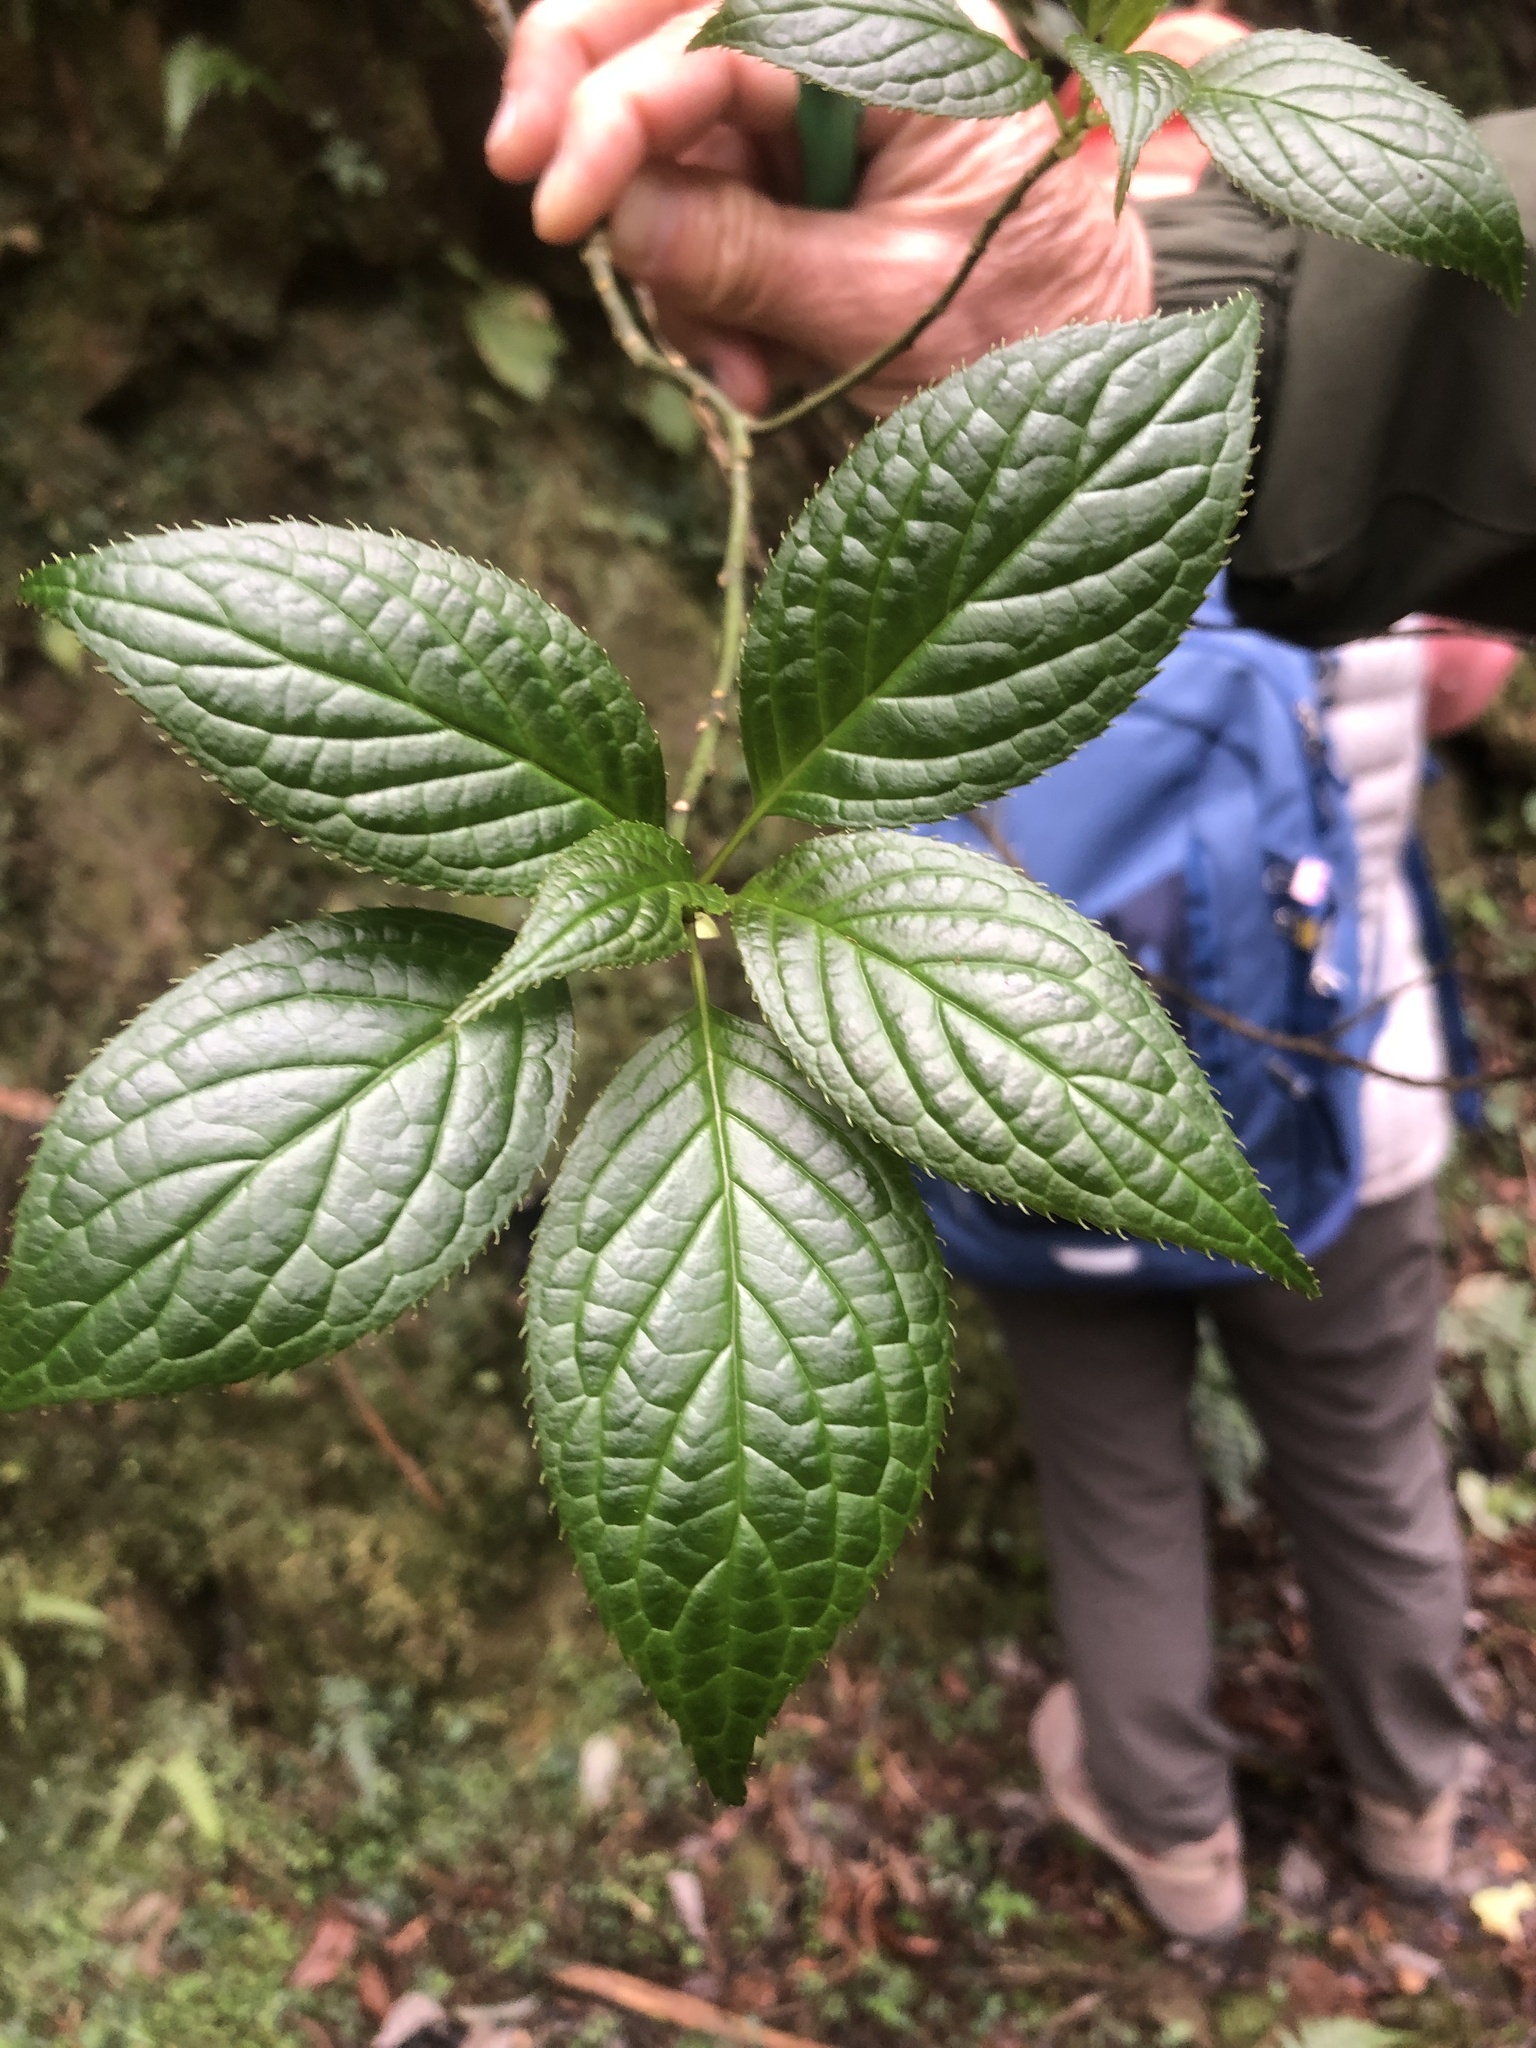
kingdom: Plantae
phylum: Tracheophyta
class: Magnoliopsida
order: Aquifoliales
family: Helwingiaceae
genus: Helwingia
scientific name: Helwingia japonica
